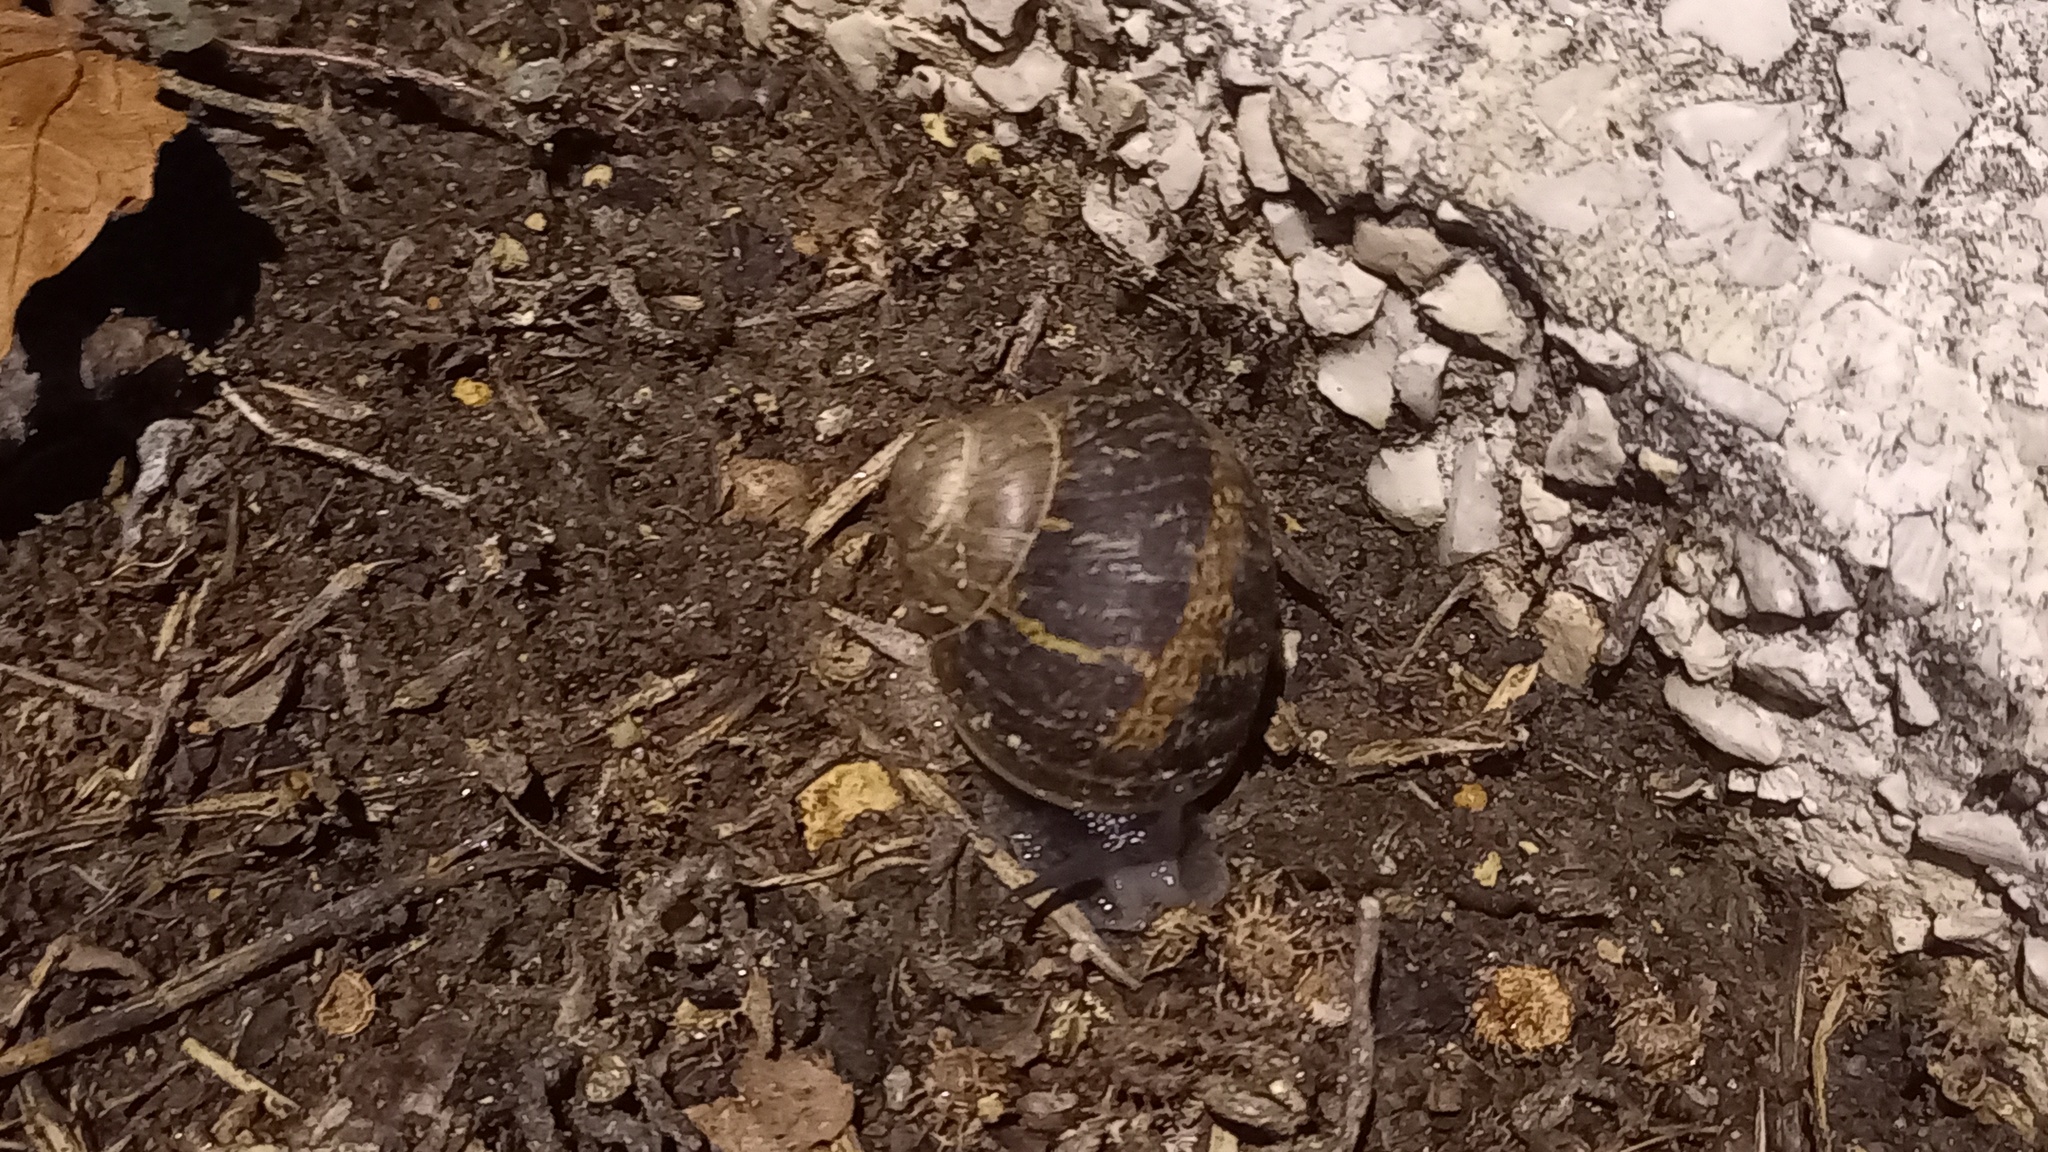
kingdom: Animalia
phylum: Mollusca
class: Gastropoda
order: Stylommatophora
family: Helicidae
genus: Cornu
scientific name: Cornu aspersum
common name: Brown garden snail
